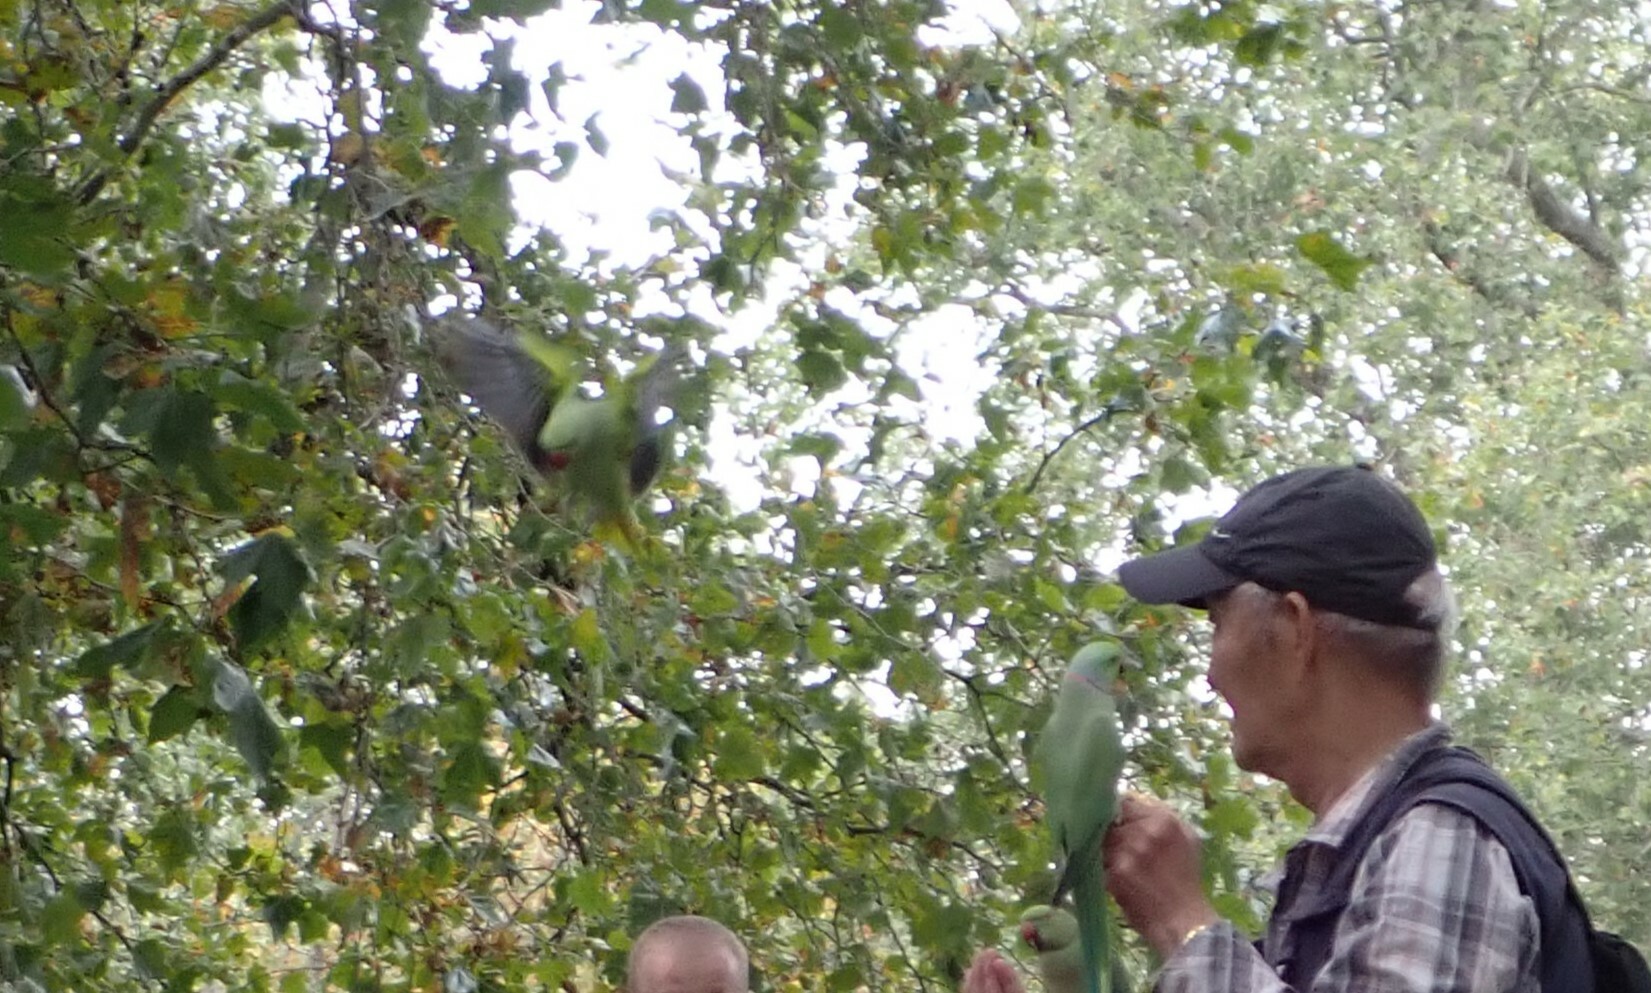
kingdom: Animalia
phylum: Chordata
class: Aves
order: Psittaciformes
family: Psittacidae
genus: Psittacula
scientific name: Psittacula krameri
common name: Rose-ringed parakeet
